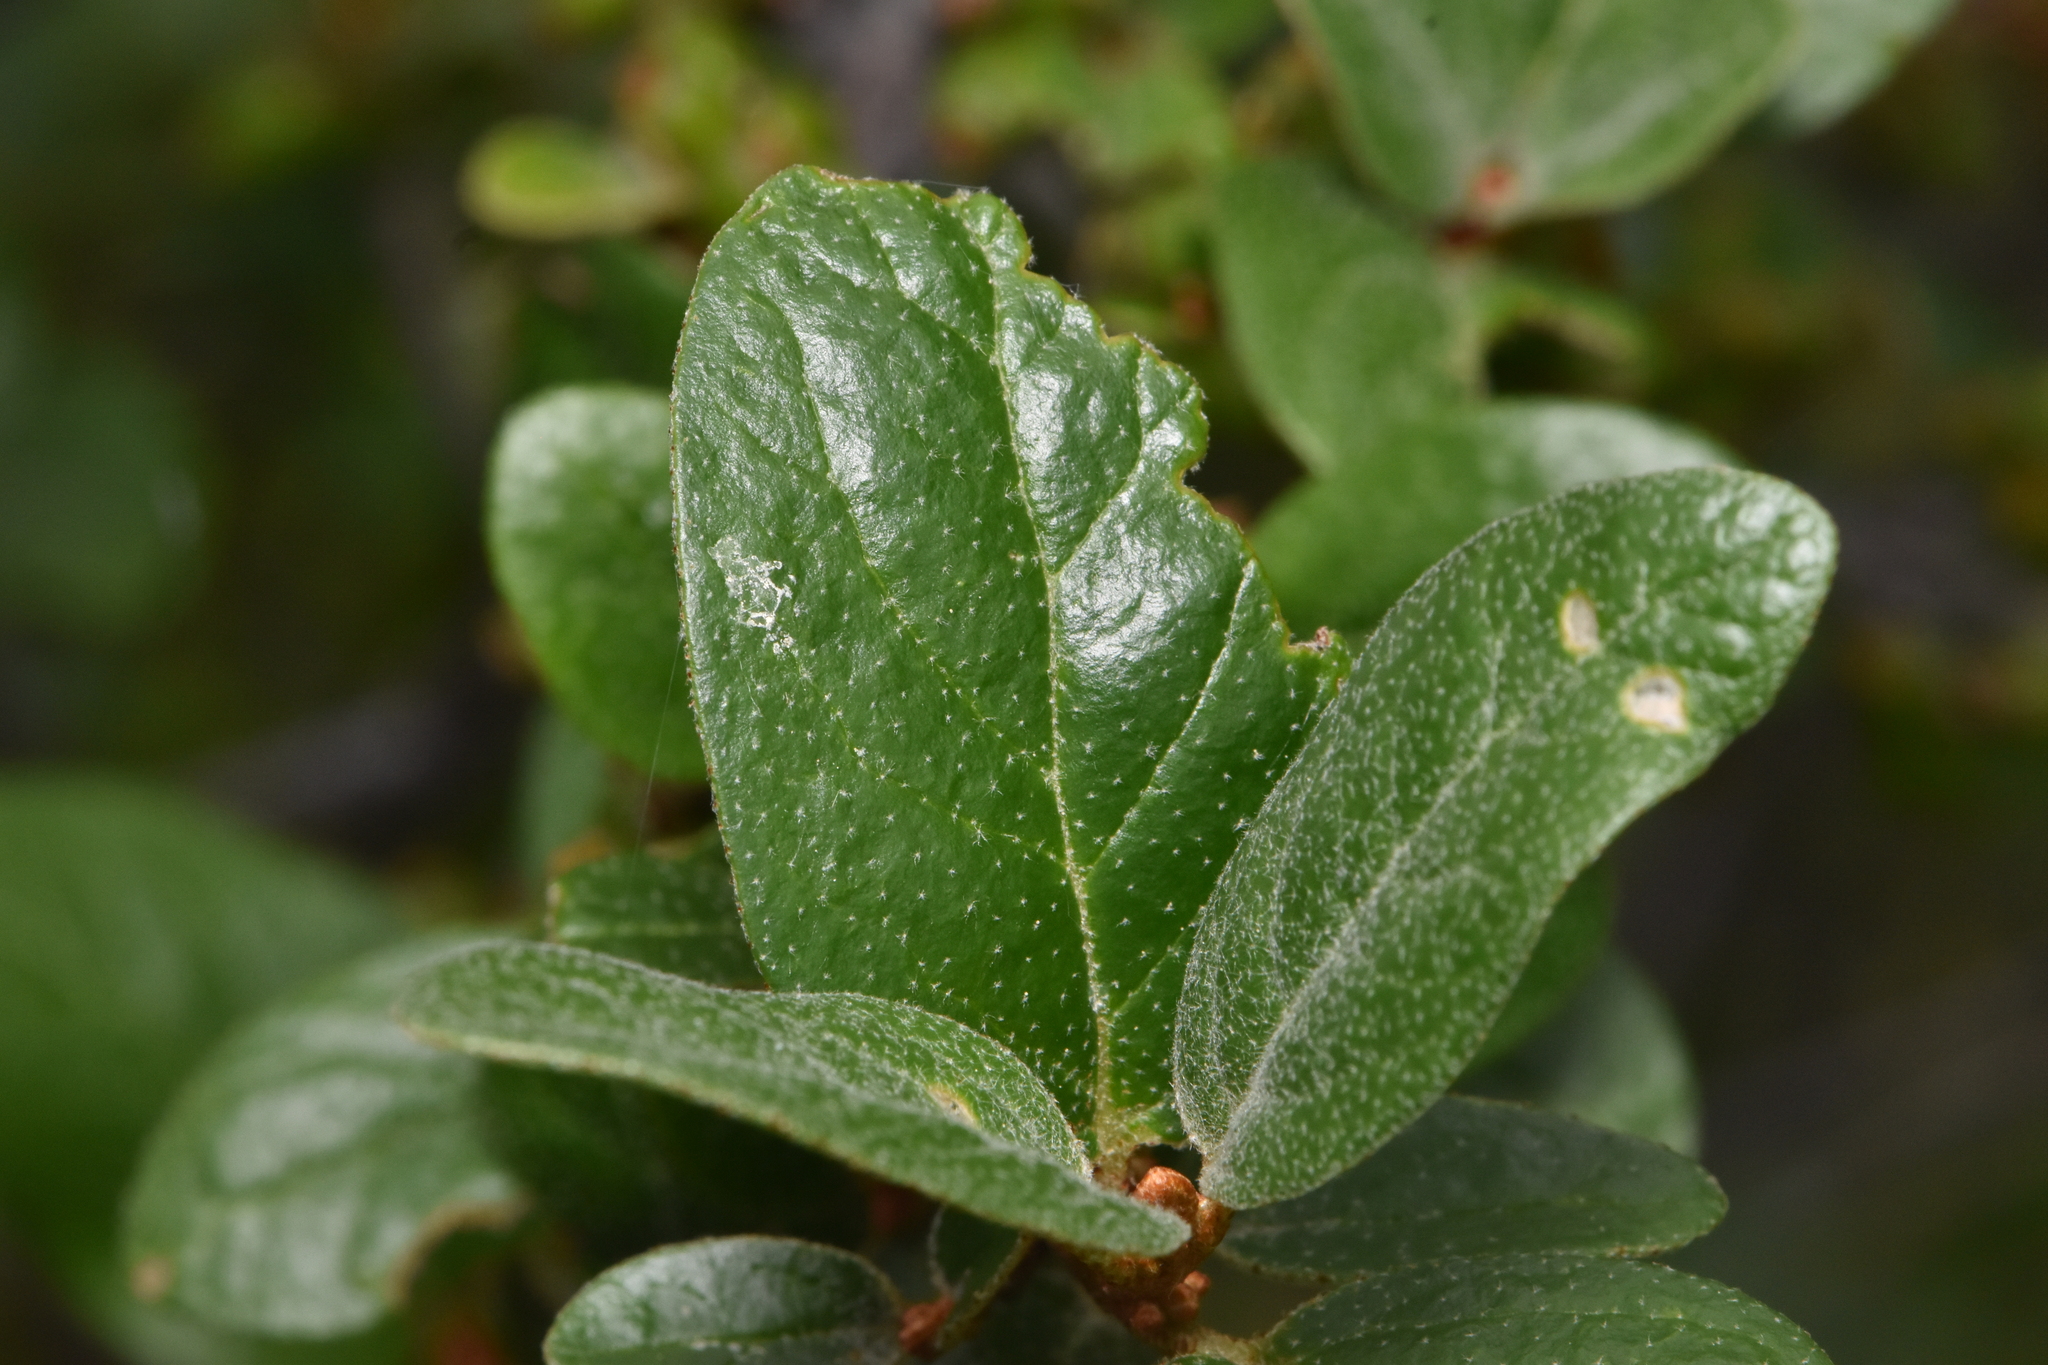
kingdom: Plantae
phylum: Tracheophyta
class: Magnoliopsida
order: Rosales
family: Elaeagnaceae
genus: Shepherdia
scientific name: Shepherdia canadensis
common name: Soapberry
